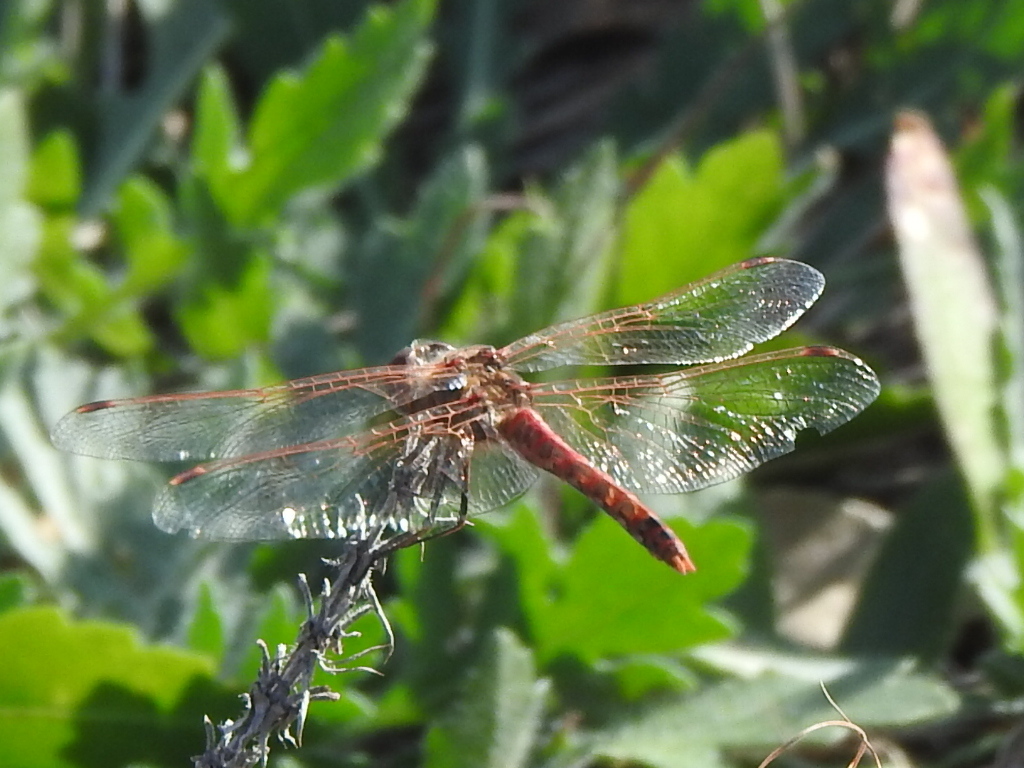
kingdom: Animalia
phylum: Arthropoda
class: Insecta
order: Odonata
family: Libellulidae
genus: Sympetrum
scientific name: Sympetrum corruptum
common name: Variegated meadowhawk
